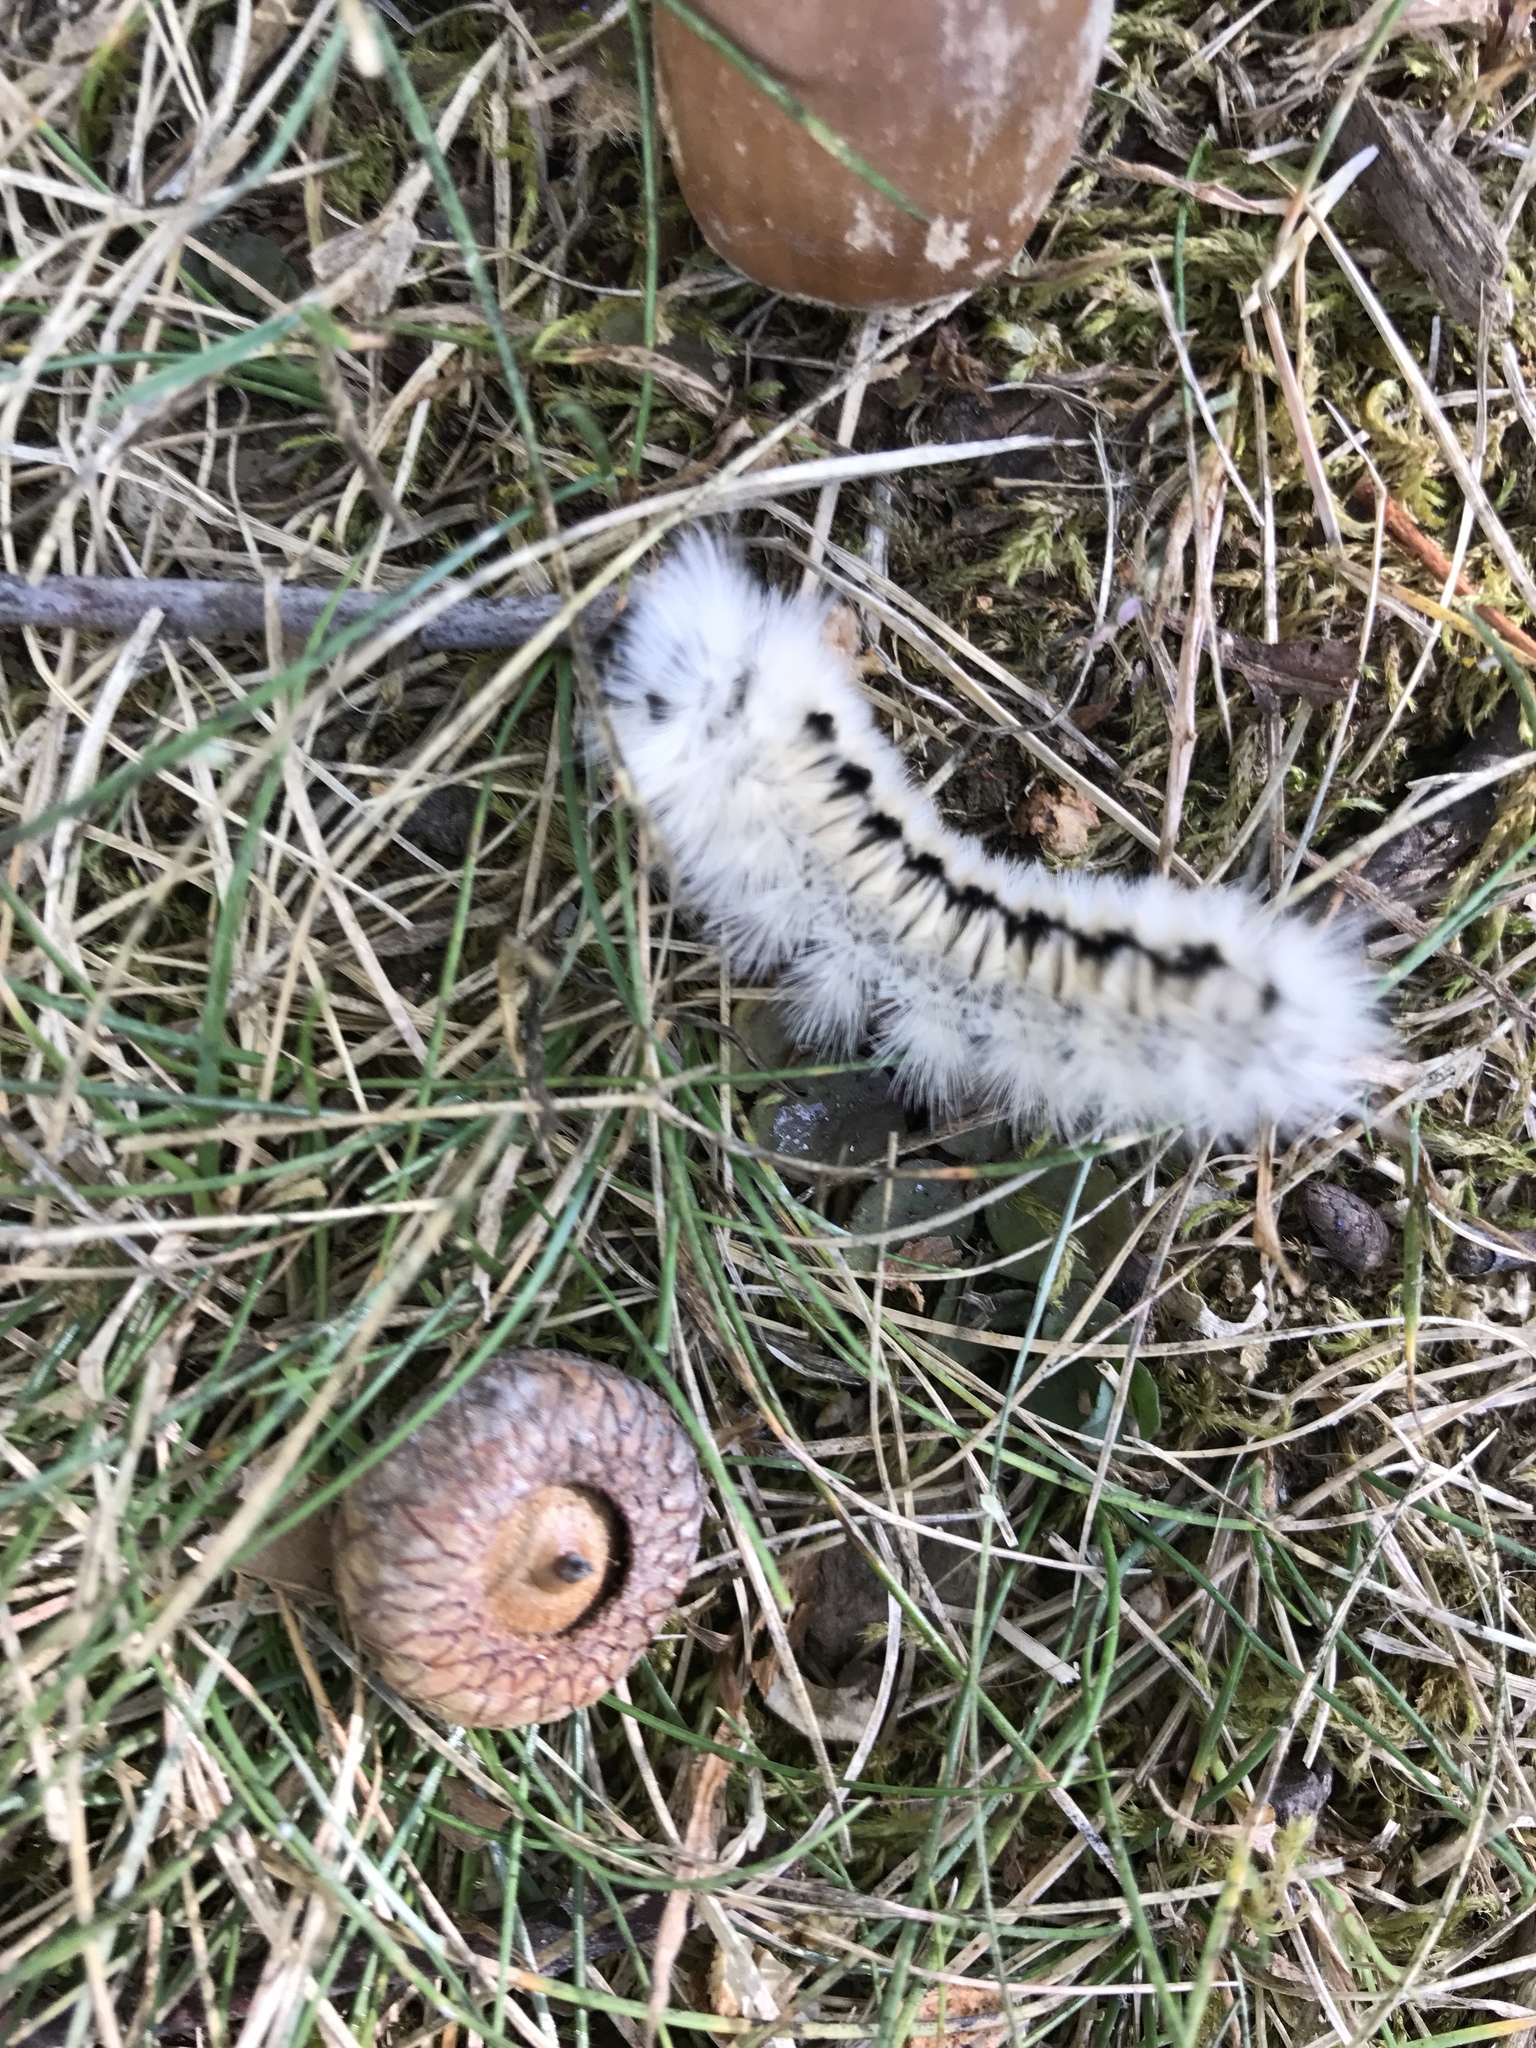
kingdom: Animalia
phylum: Arthropoda
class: Insecta
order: Lepidoptera
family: Erebidae
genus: Lophocampa
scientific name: Lophocampa caryae
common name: Hickory tussock moth
